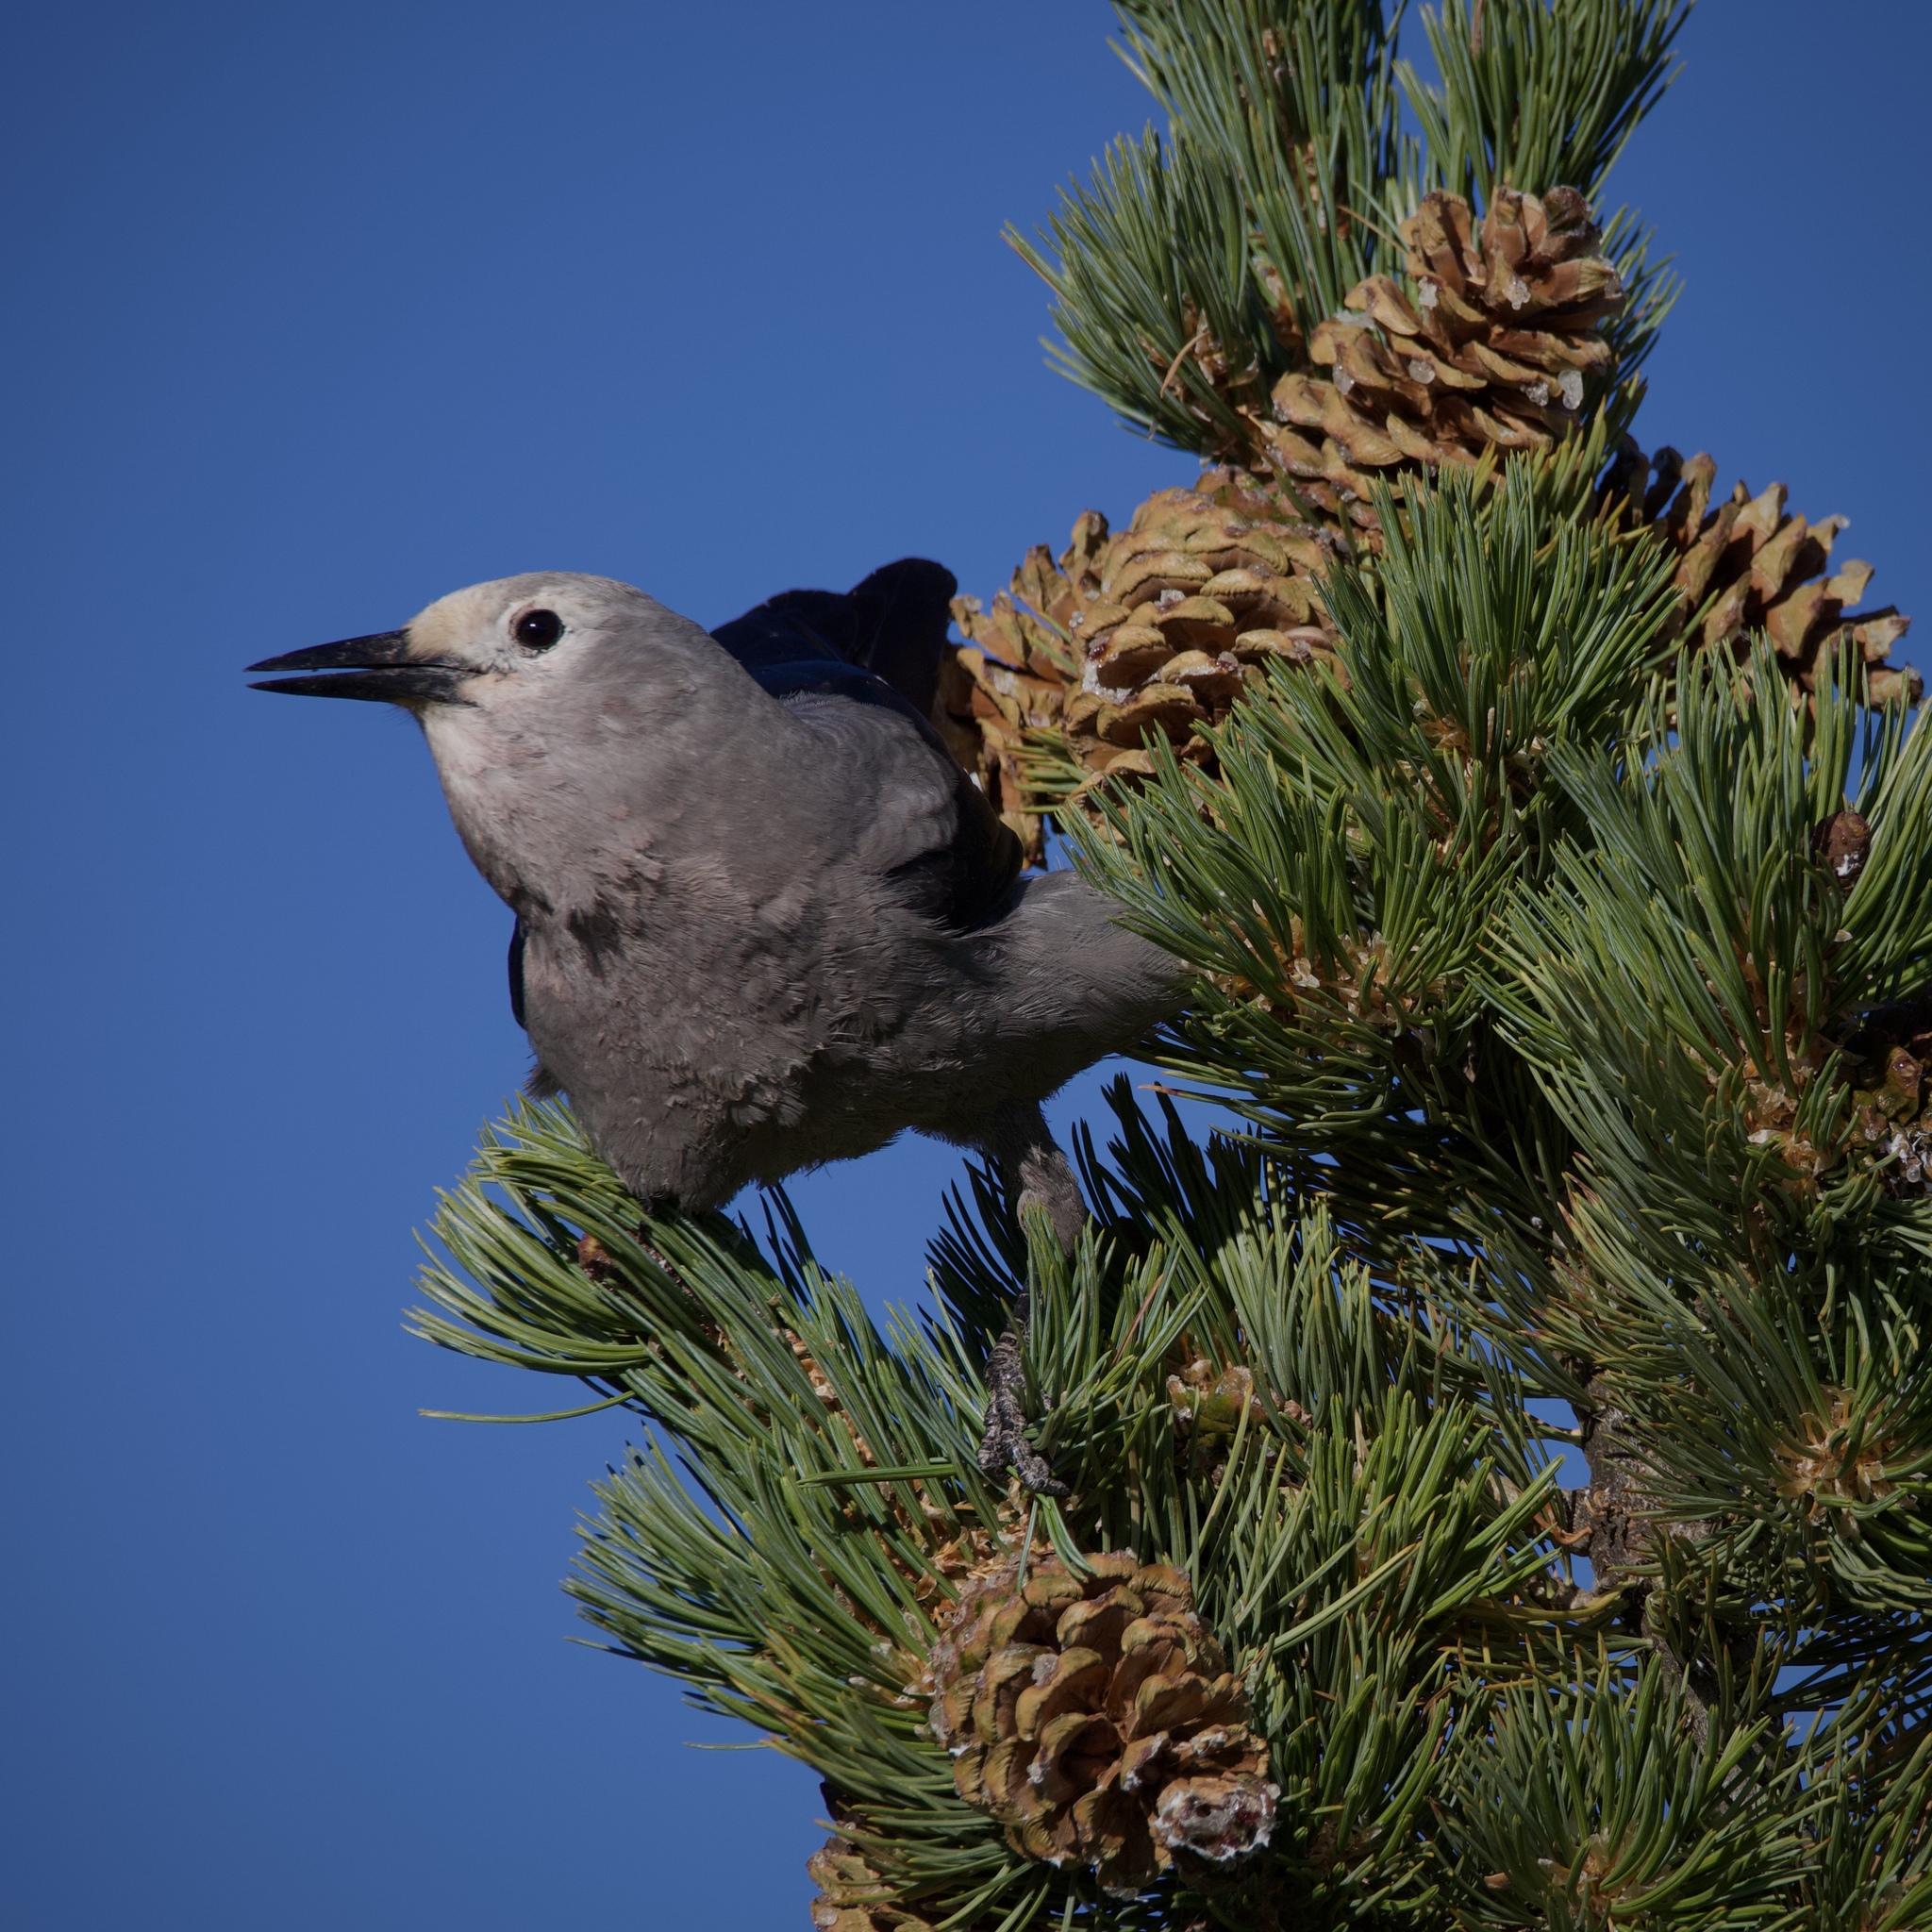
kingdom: Animalia
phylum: Chordata
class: Aves
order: Passeriformes
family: Corvidae
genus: Nucifraga
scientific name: Nucifraga columbiana
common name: Clark's nutcracker
